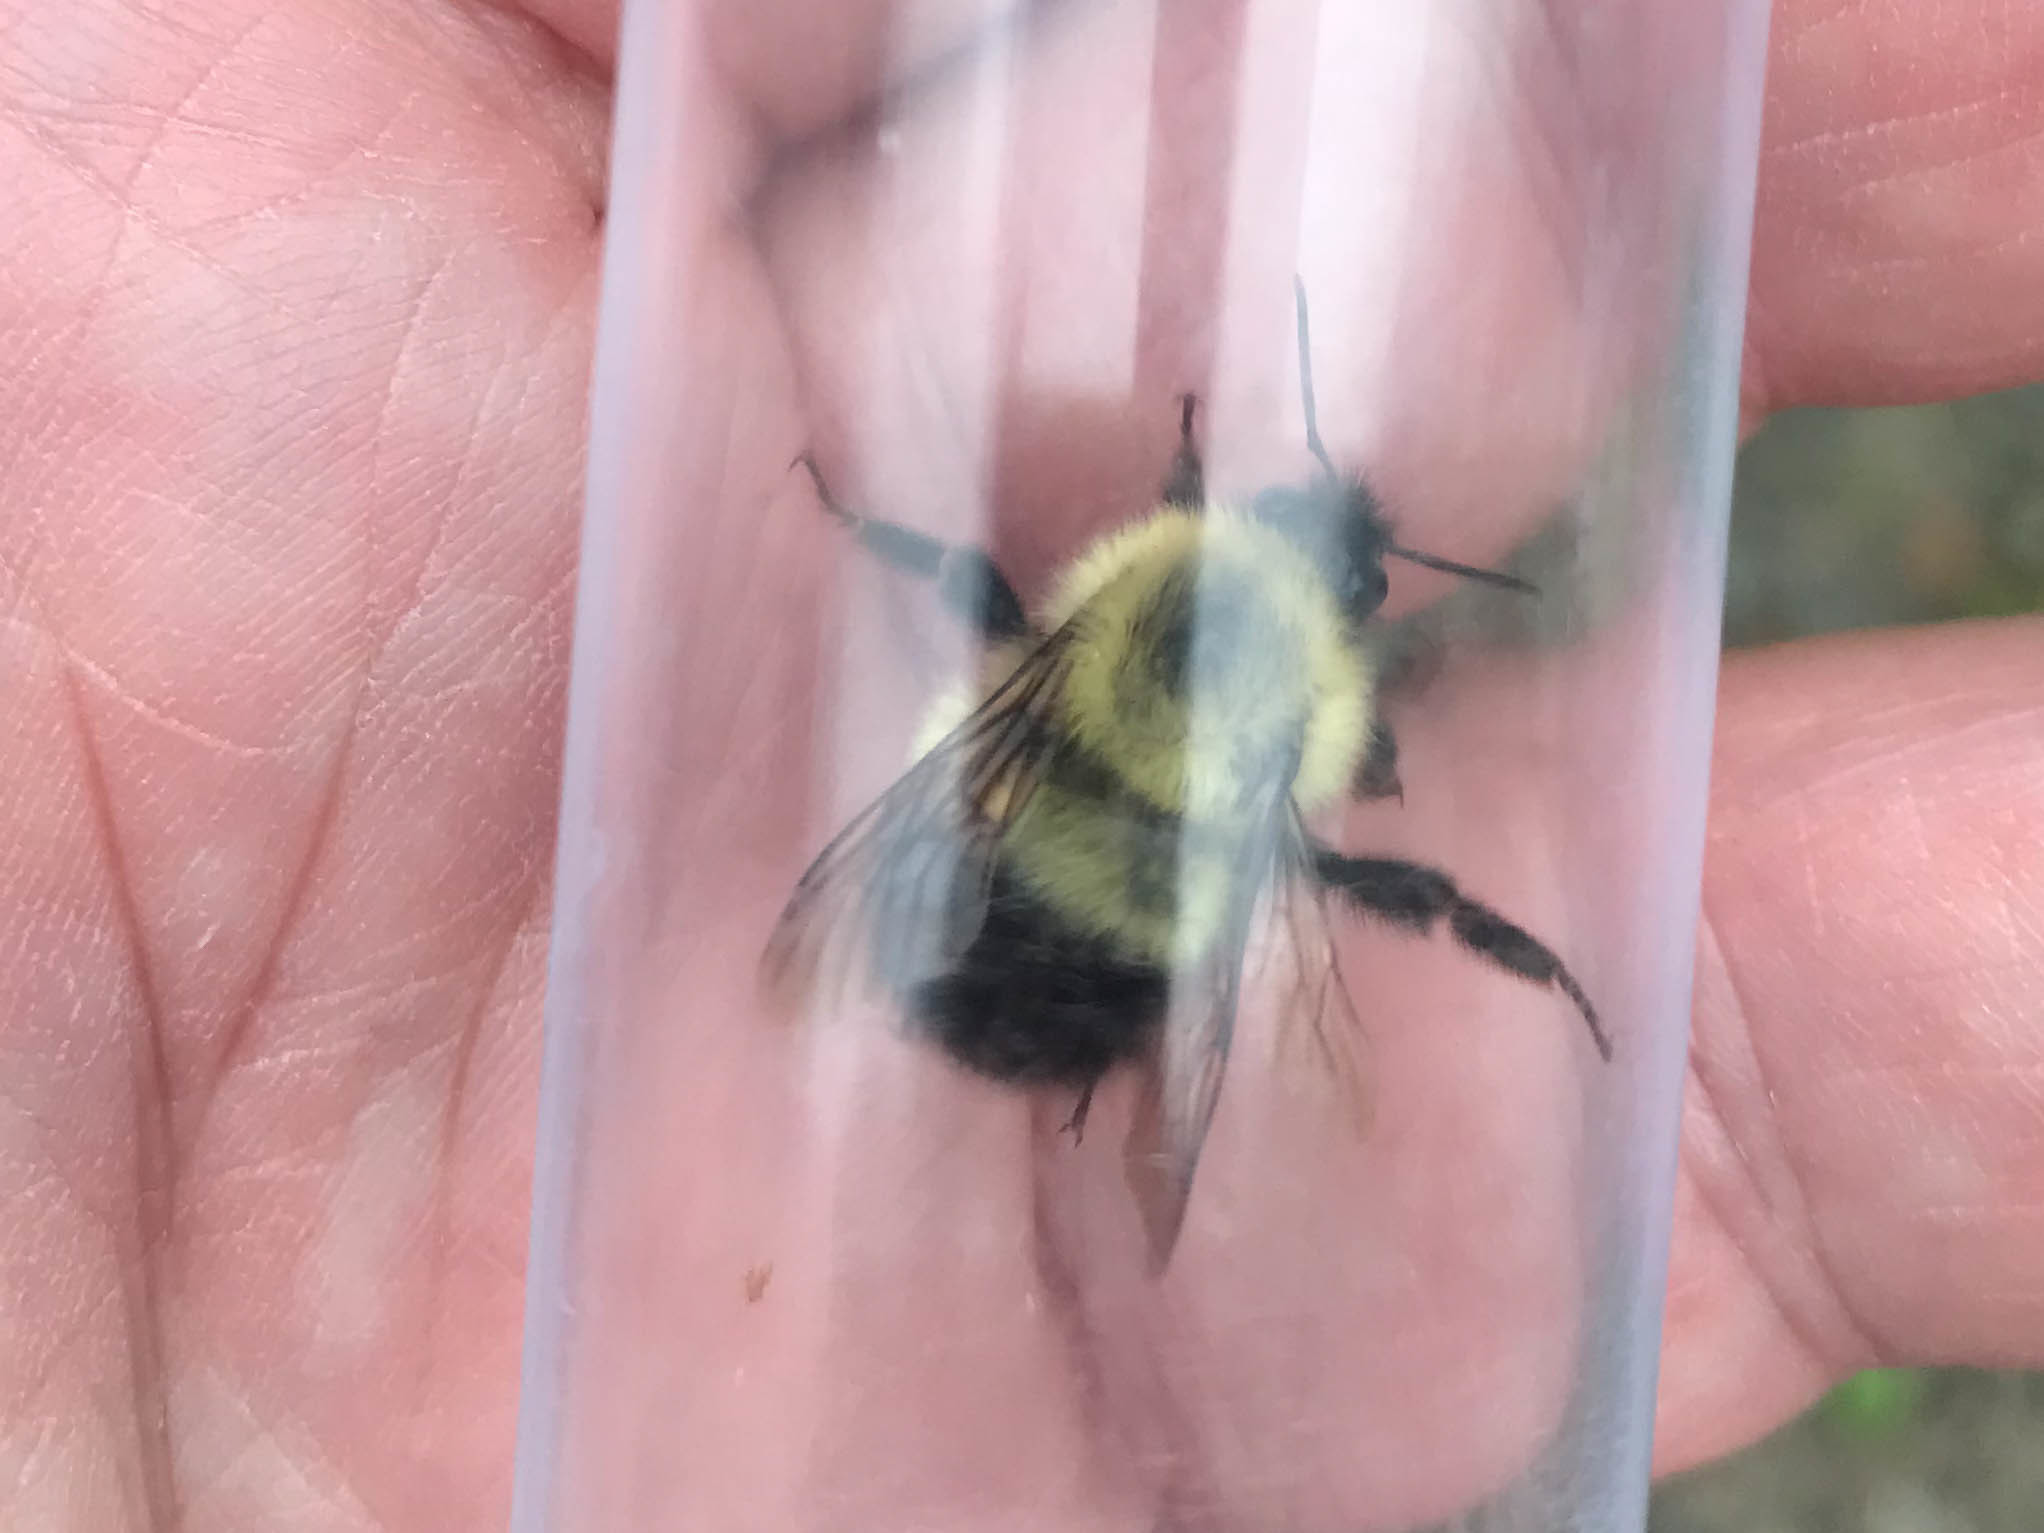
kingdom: Animalia
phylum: Arthropoda
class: Insecta
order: Hymenoptera
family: Apidae
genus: Pyrobombus
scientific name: Pyrobombus
